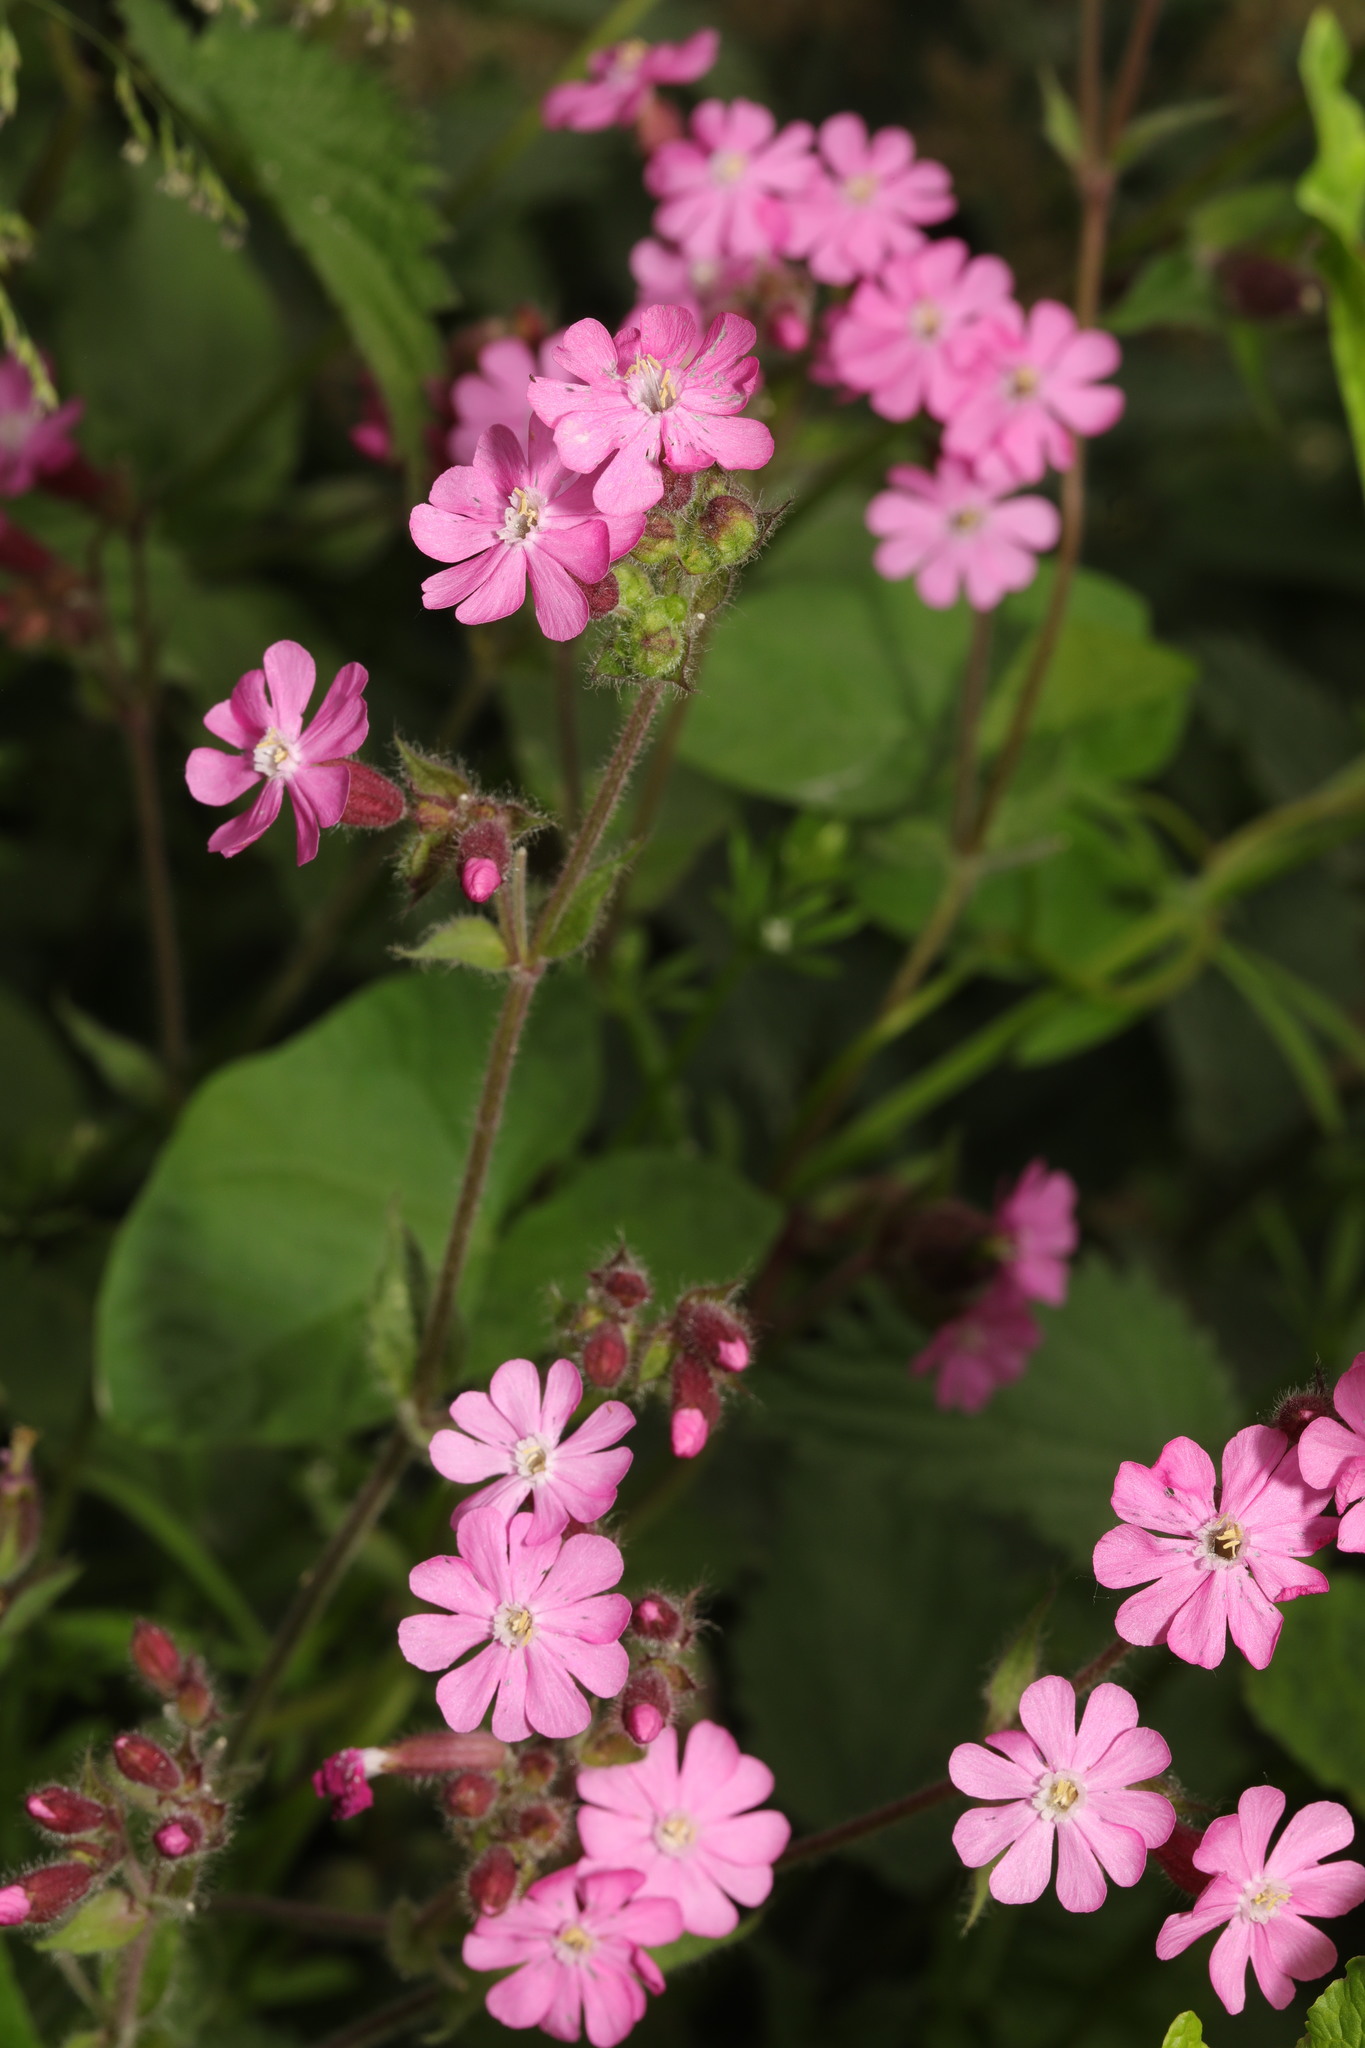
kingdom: Plantae
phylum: Tracheophyta
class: Magnoliopsida
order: Caryophyllales
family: Caryophyllaceae
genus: Silene
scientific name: Silene dioica
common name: Red campion
